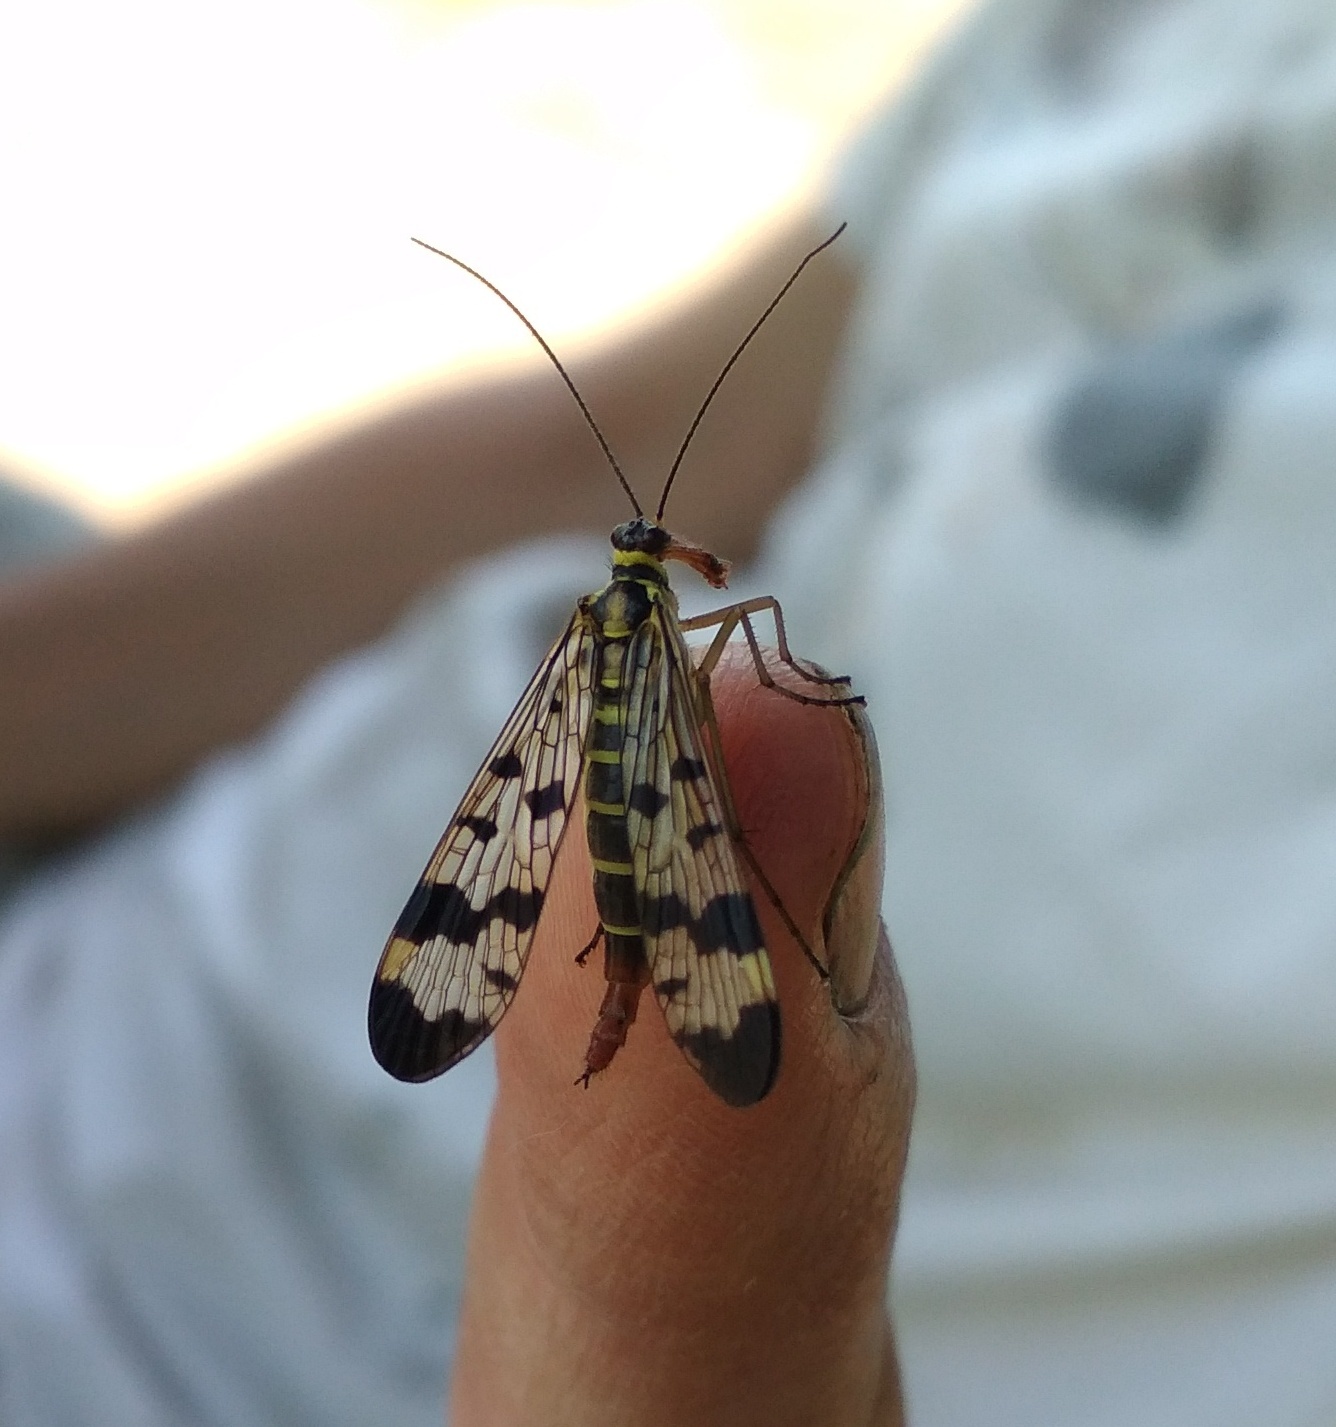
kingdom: Animalia
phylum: Arthropoda
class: Insecta
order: Mecoptera
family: Panorpidae
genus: Panorpa
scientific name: Panorpa communis
